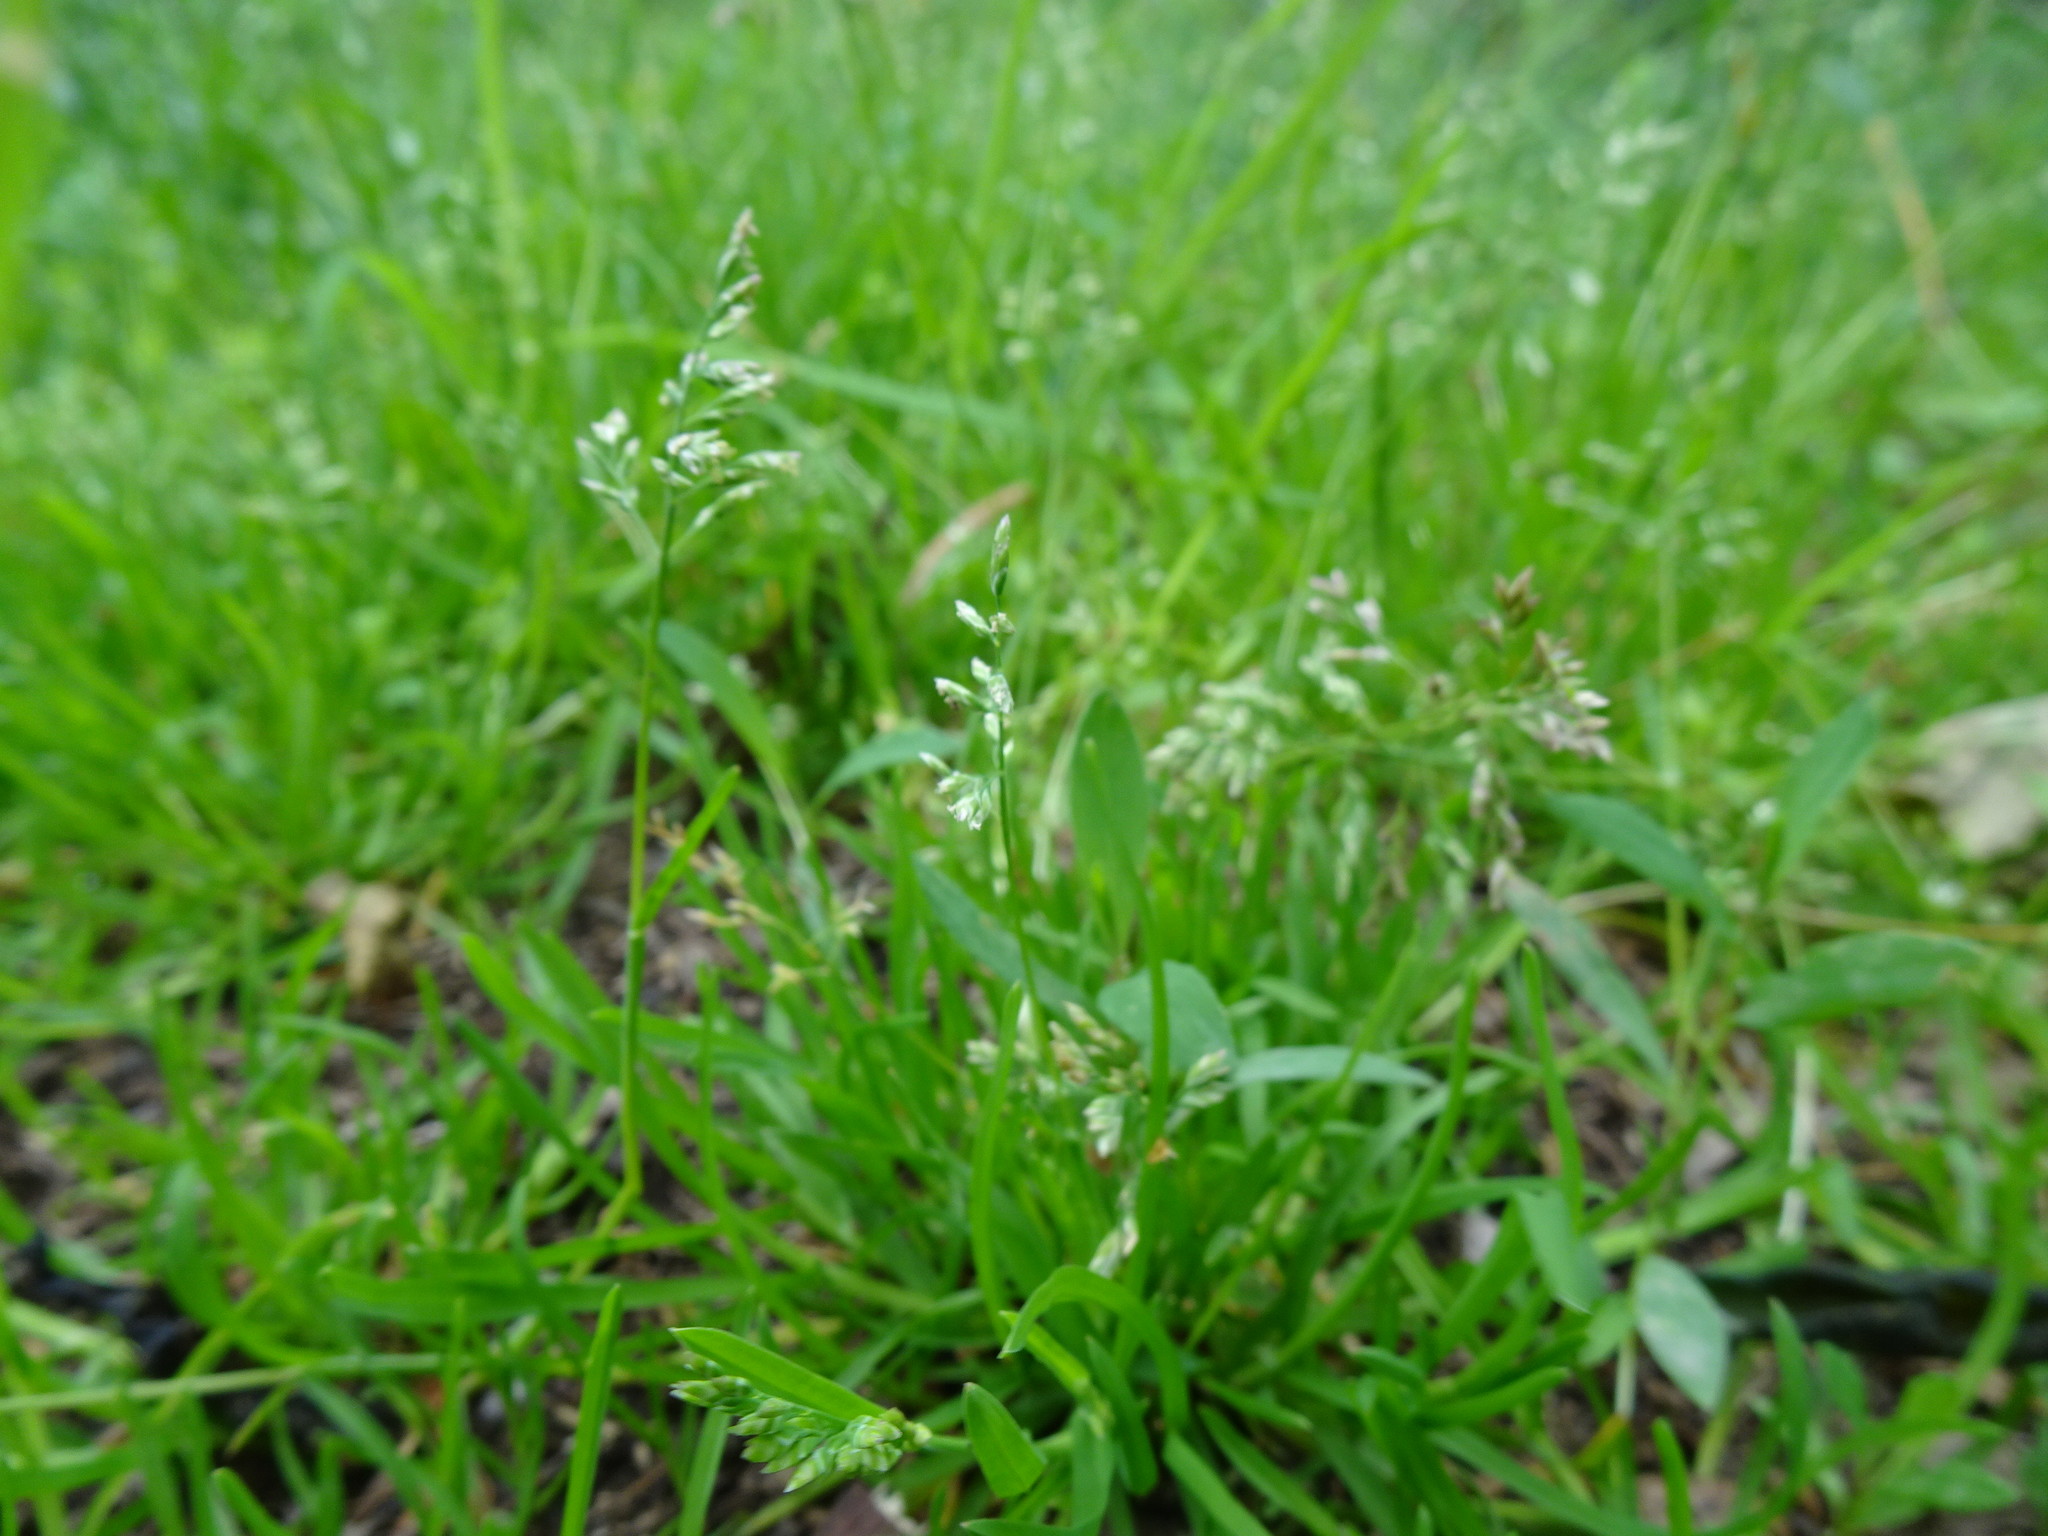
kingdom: Plantae
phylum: Tracheophyta
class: Liliopsida
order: Poales
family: Poaceae
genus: Poa
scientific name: Poa annua
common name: Annual bluegrass
